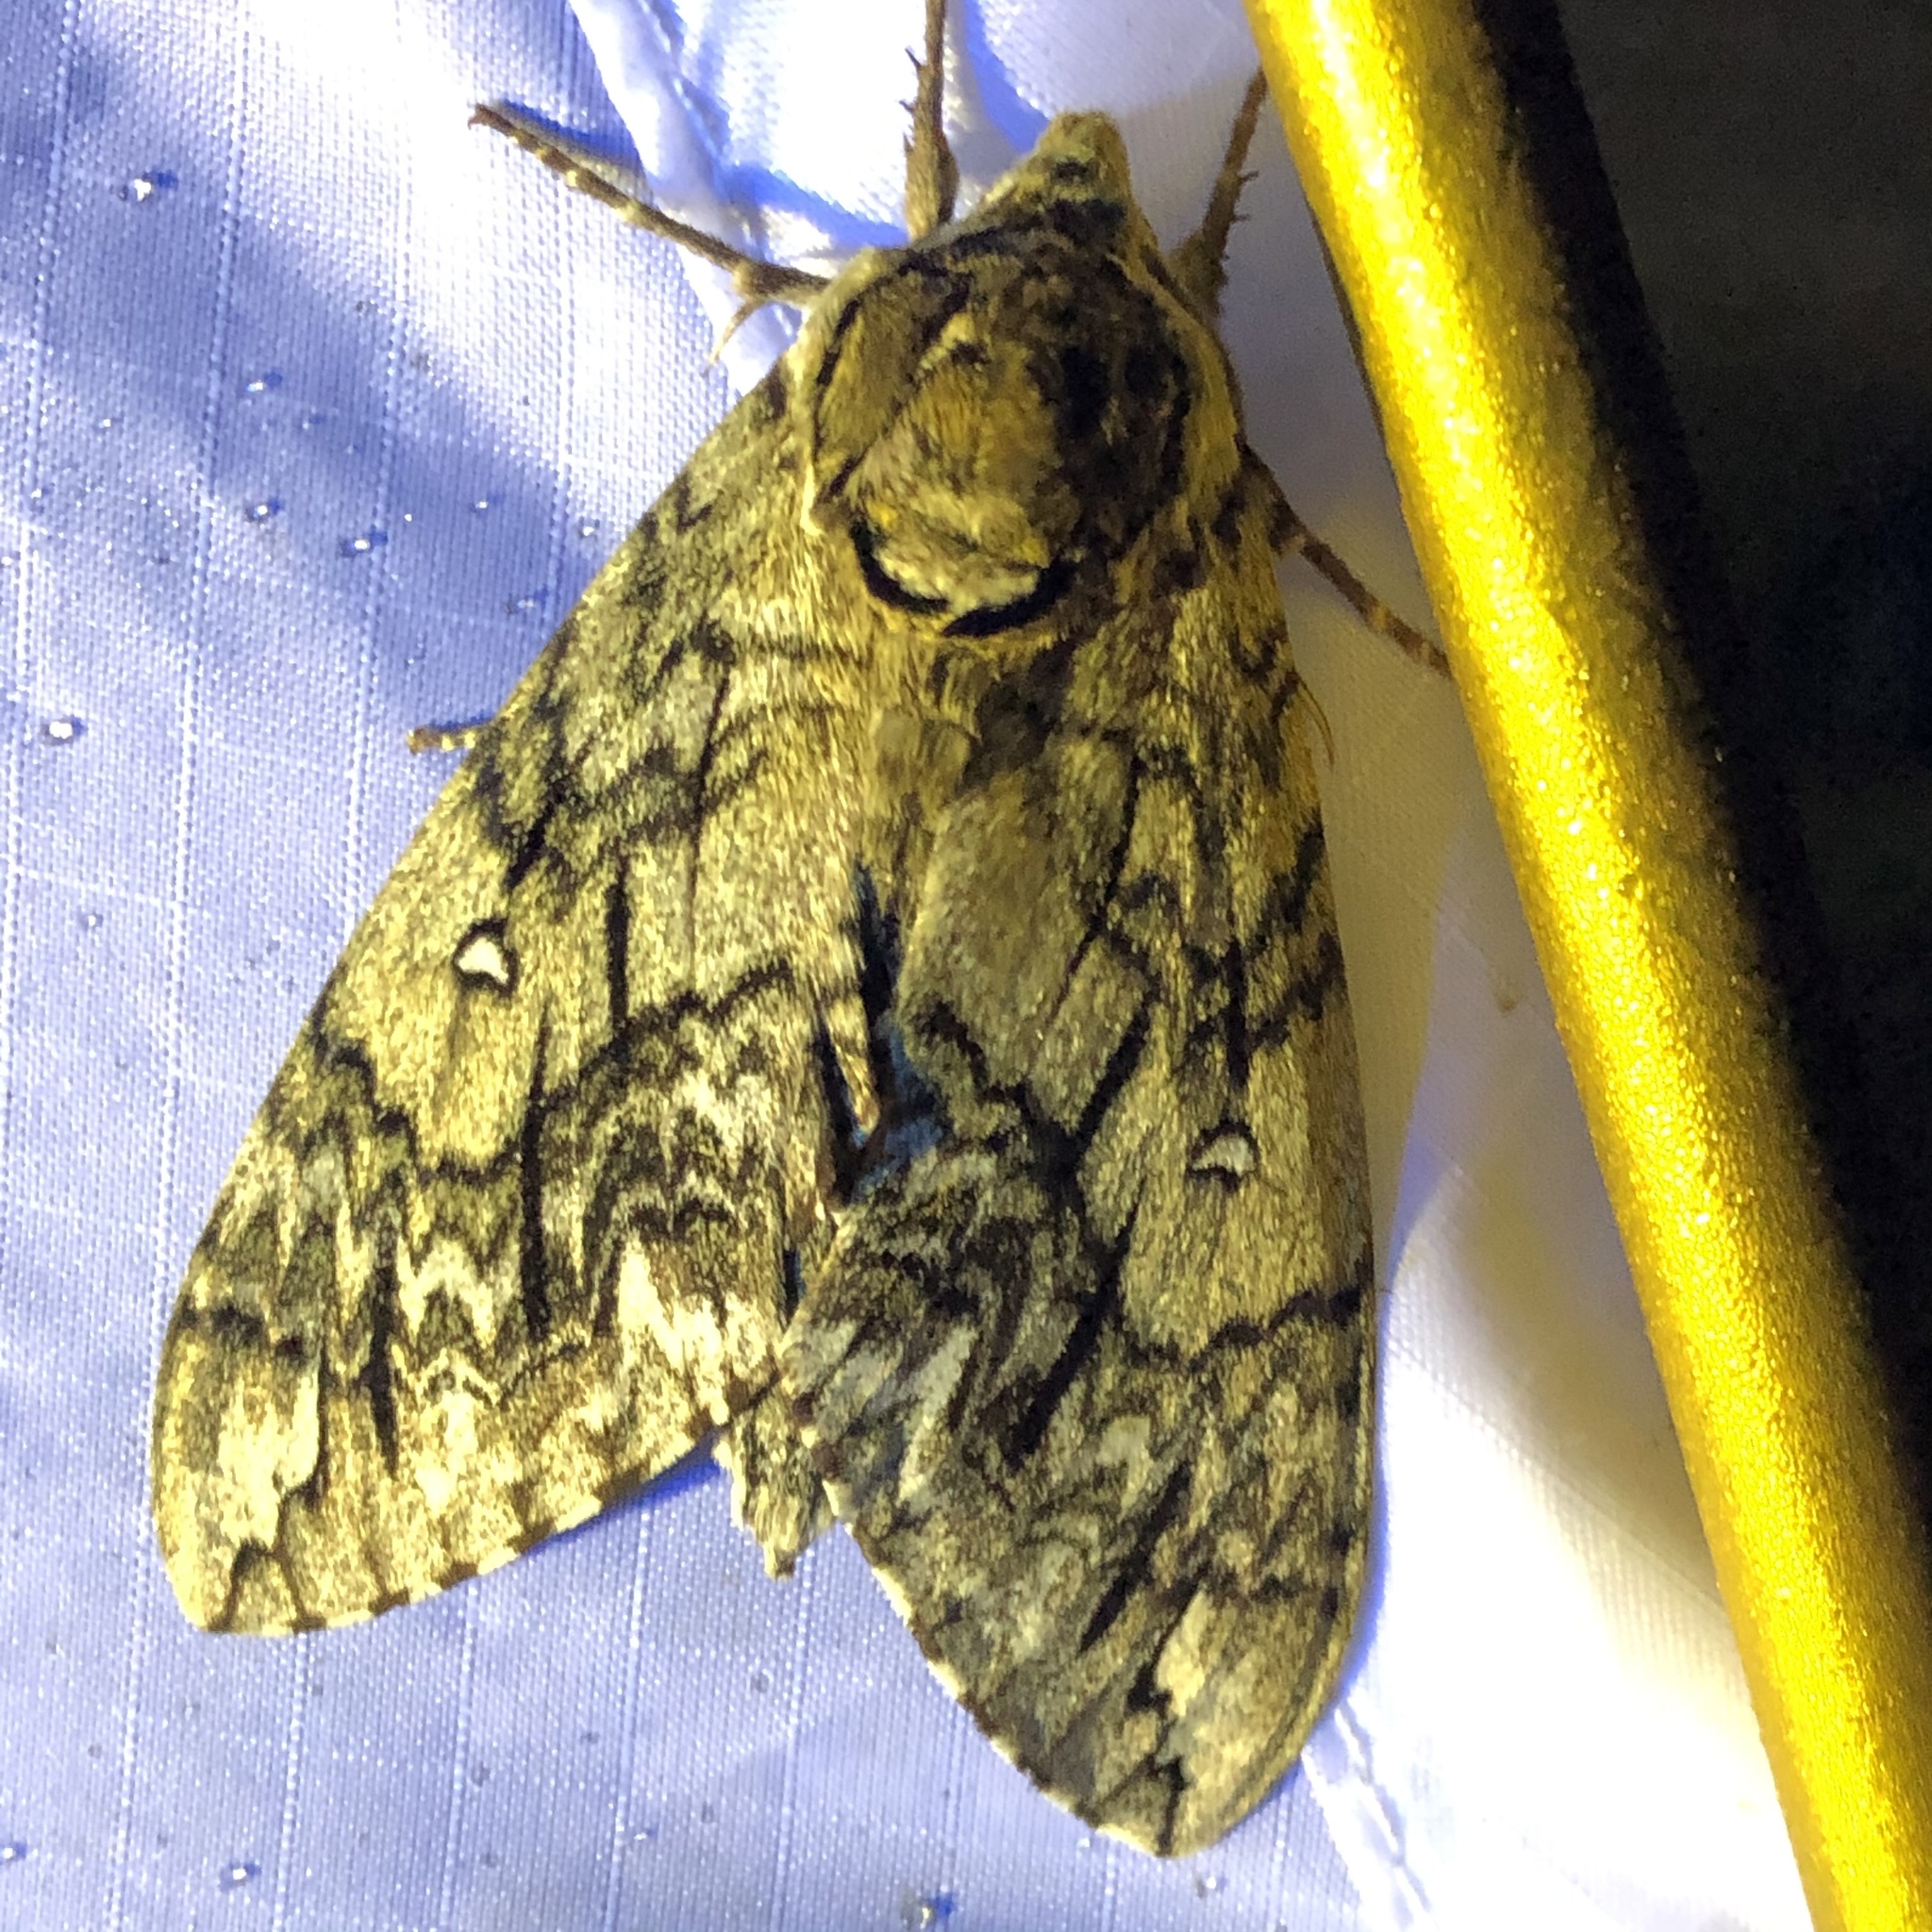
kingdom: Animalia
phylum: Arthropoda
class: Insecta
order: Lepidoptera
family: Sphingidae
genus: Ceratomia
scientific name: Ceratomia undulosa
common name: Waved sphinx
